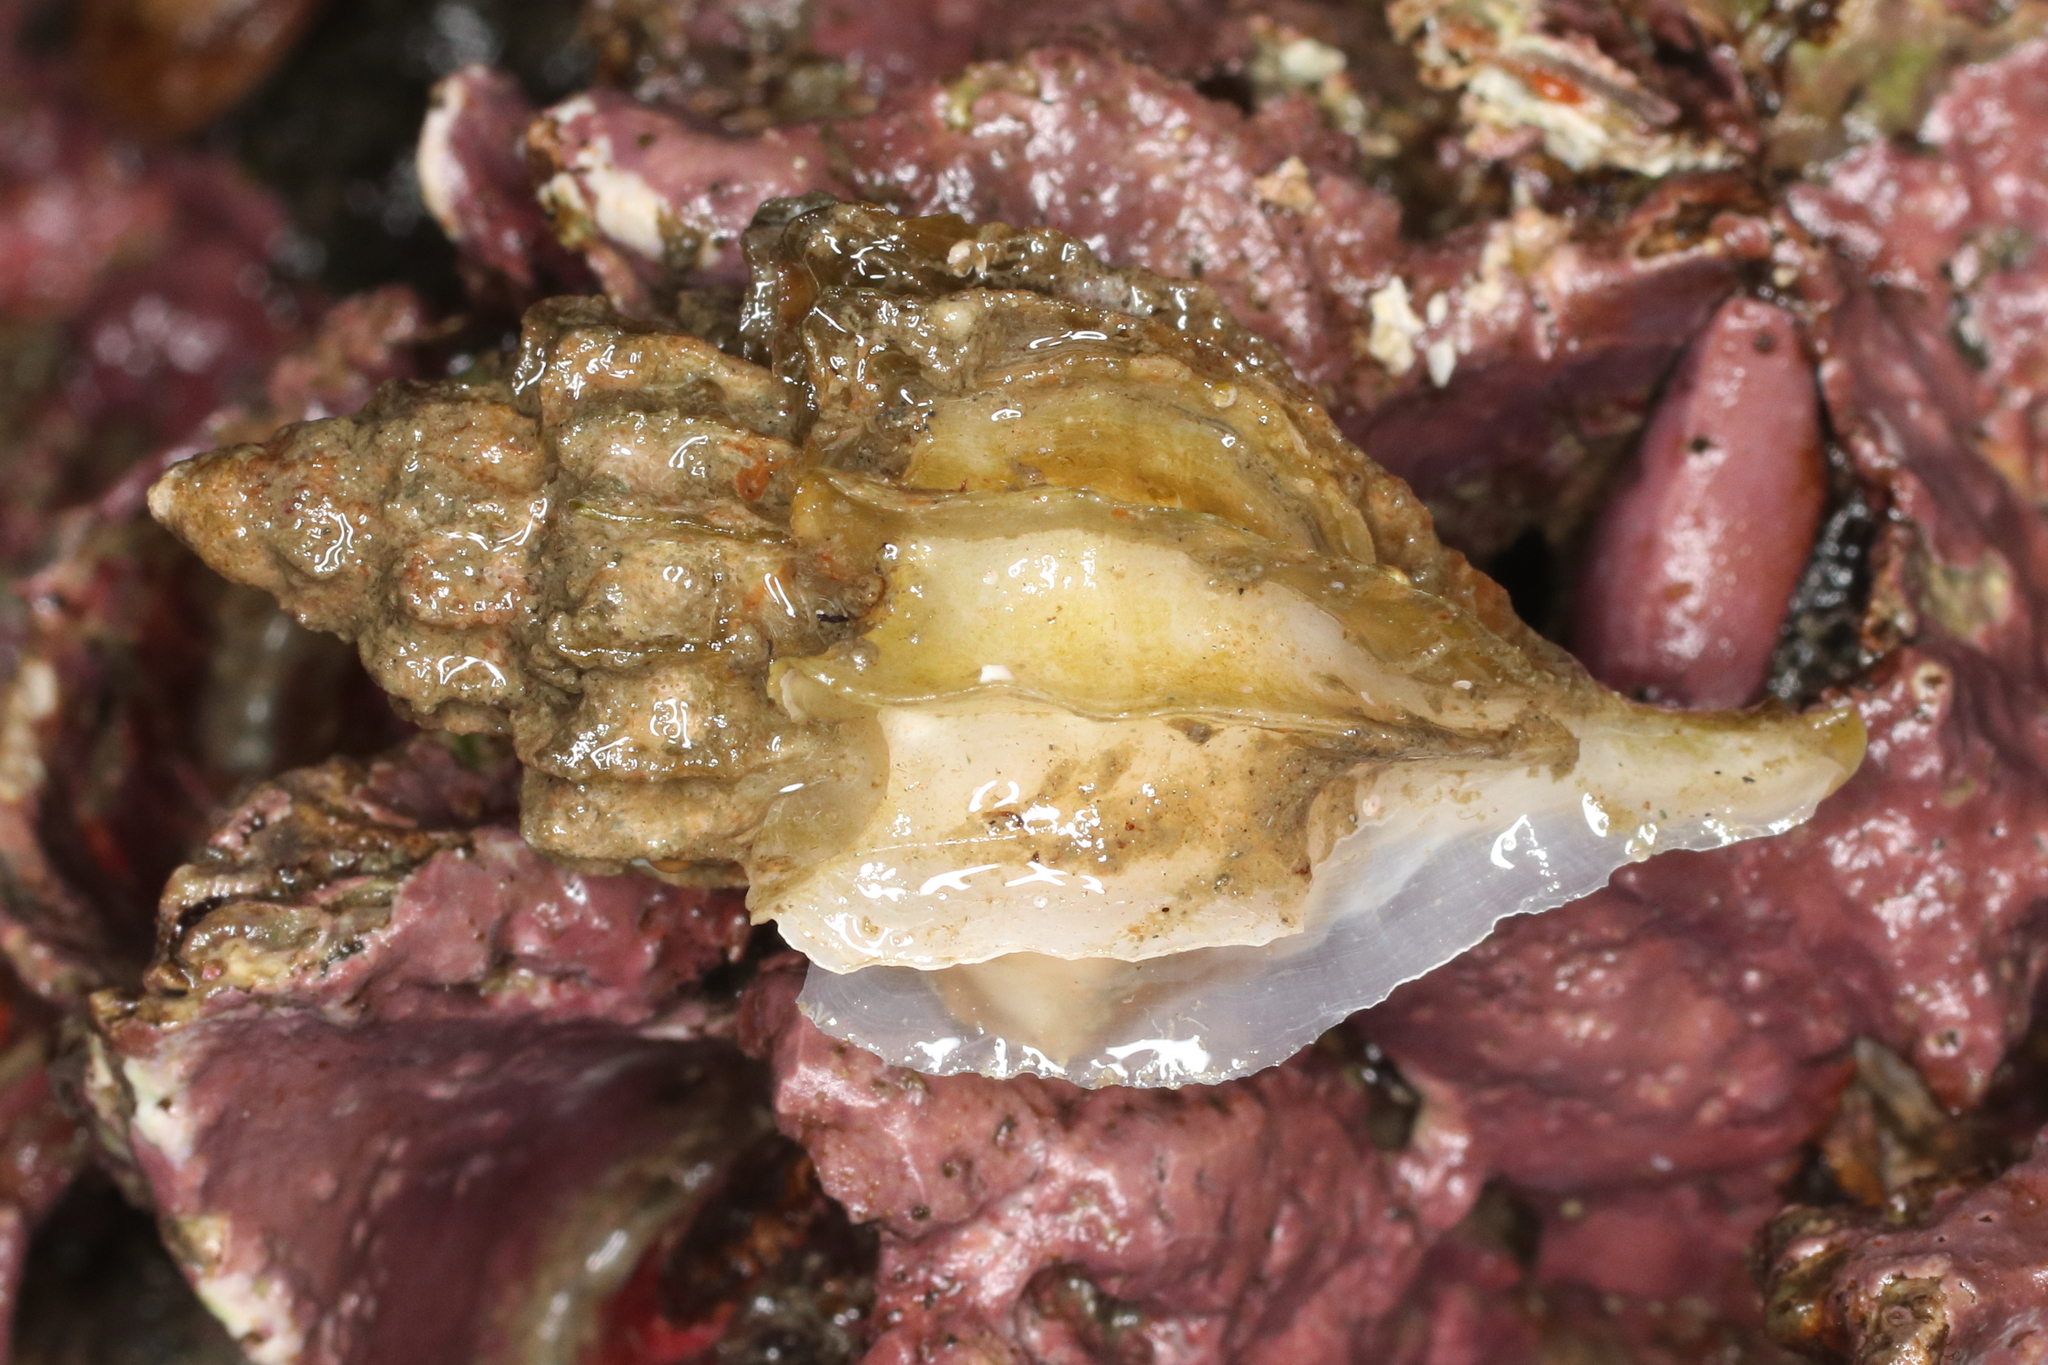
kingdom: Animalia
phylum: Mollusca
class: Gastropoda
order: Neogastropoda
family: Muricidae
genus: Scabrotrophon
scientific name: Scabrotrophon stuarti
